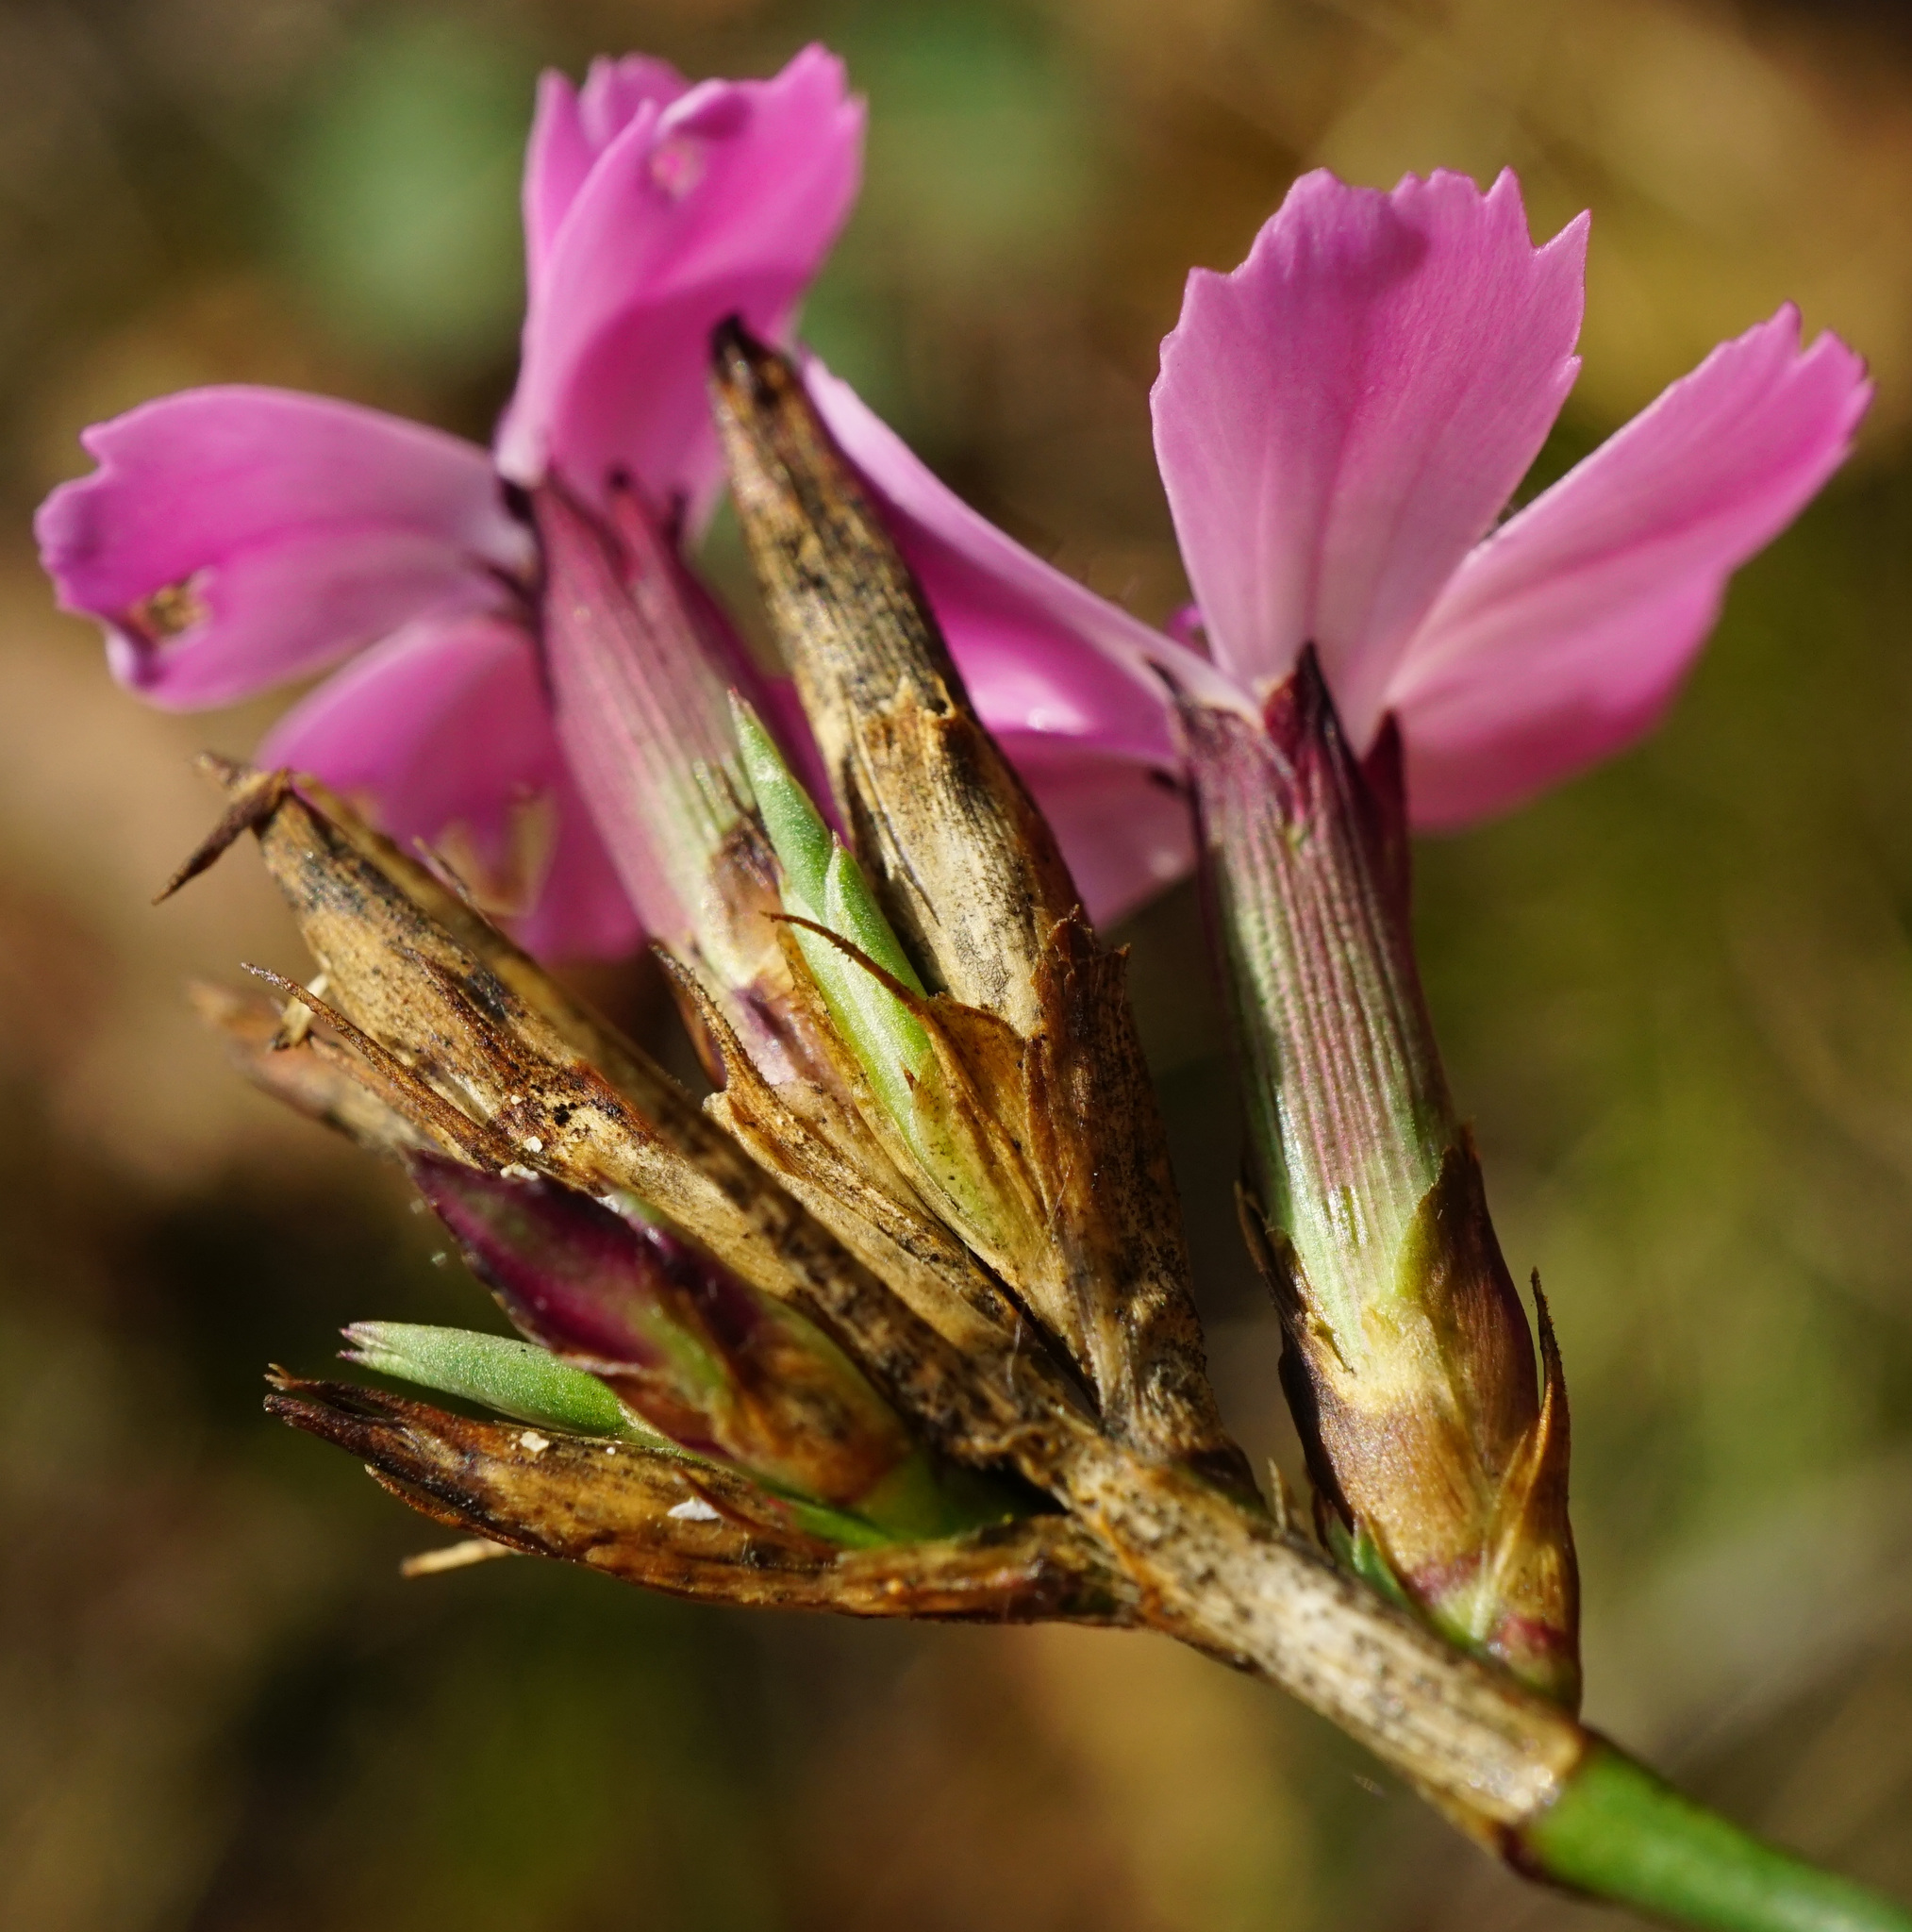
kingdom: Plantae
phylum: Tracheophyta
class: Magnoliopsida
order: Caryophyllales
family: Caryophyllaceae
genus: Dianthus
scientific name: Dianthus carthusianorum
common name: Carthusian pink
